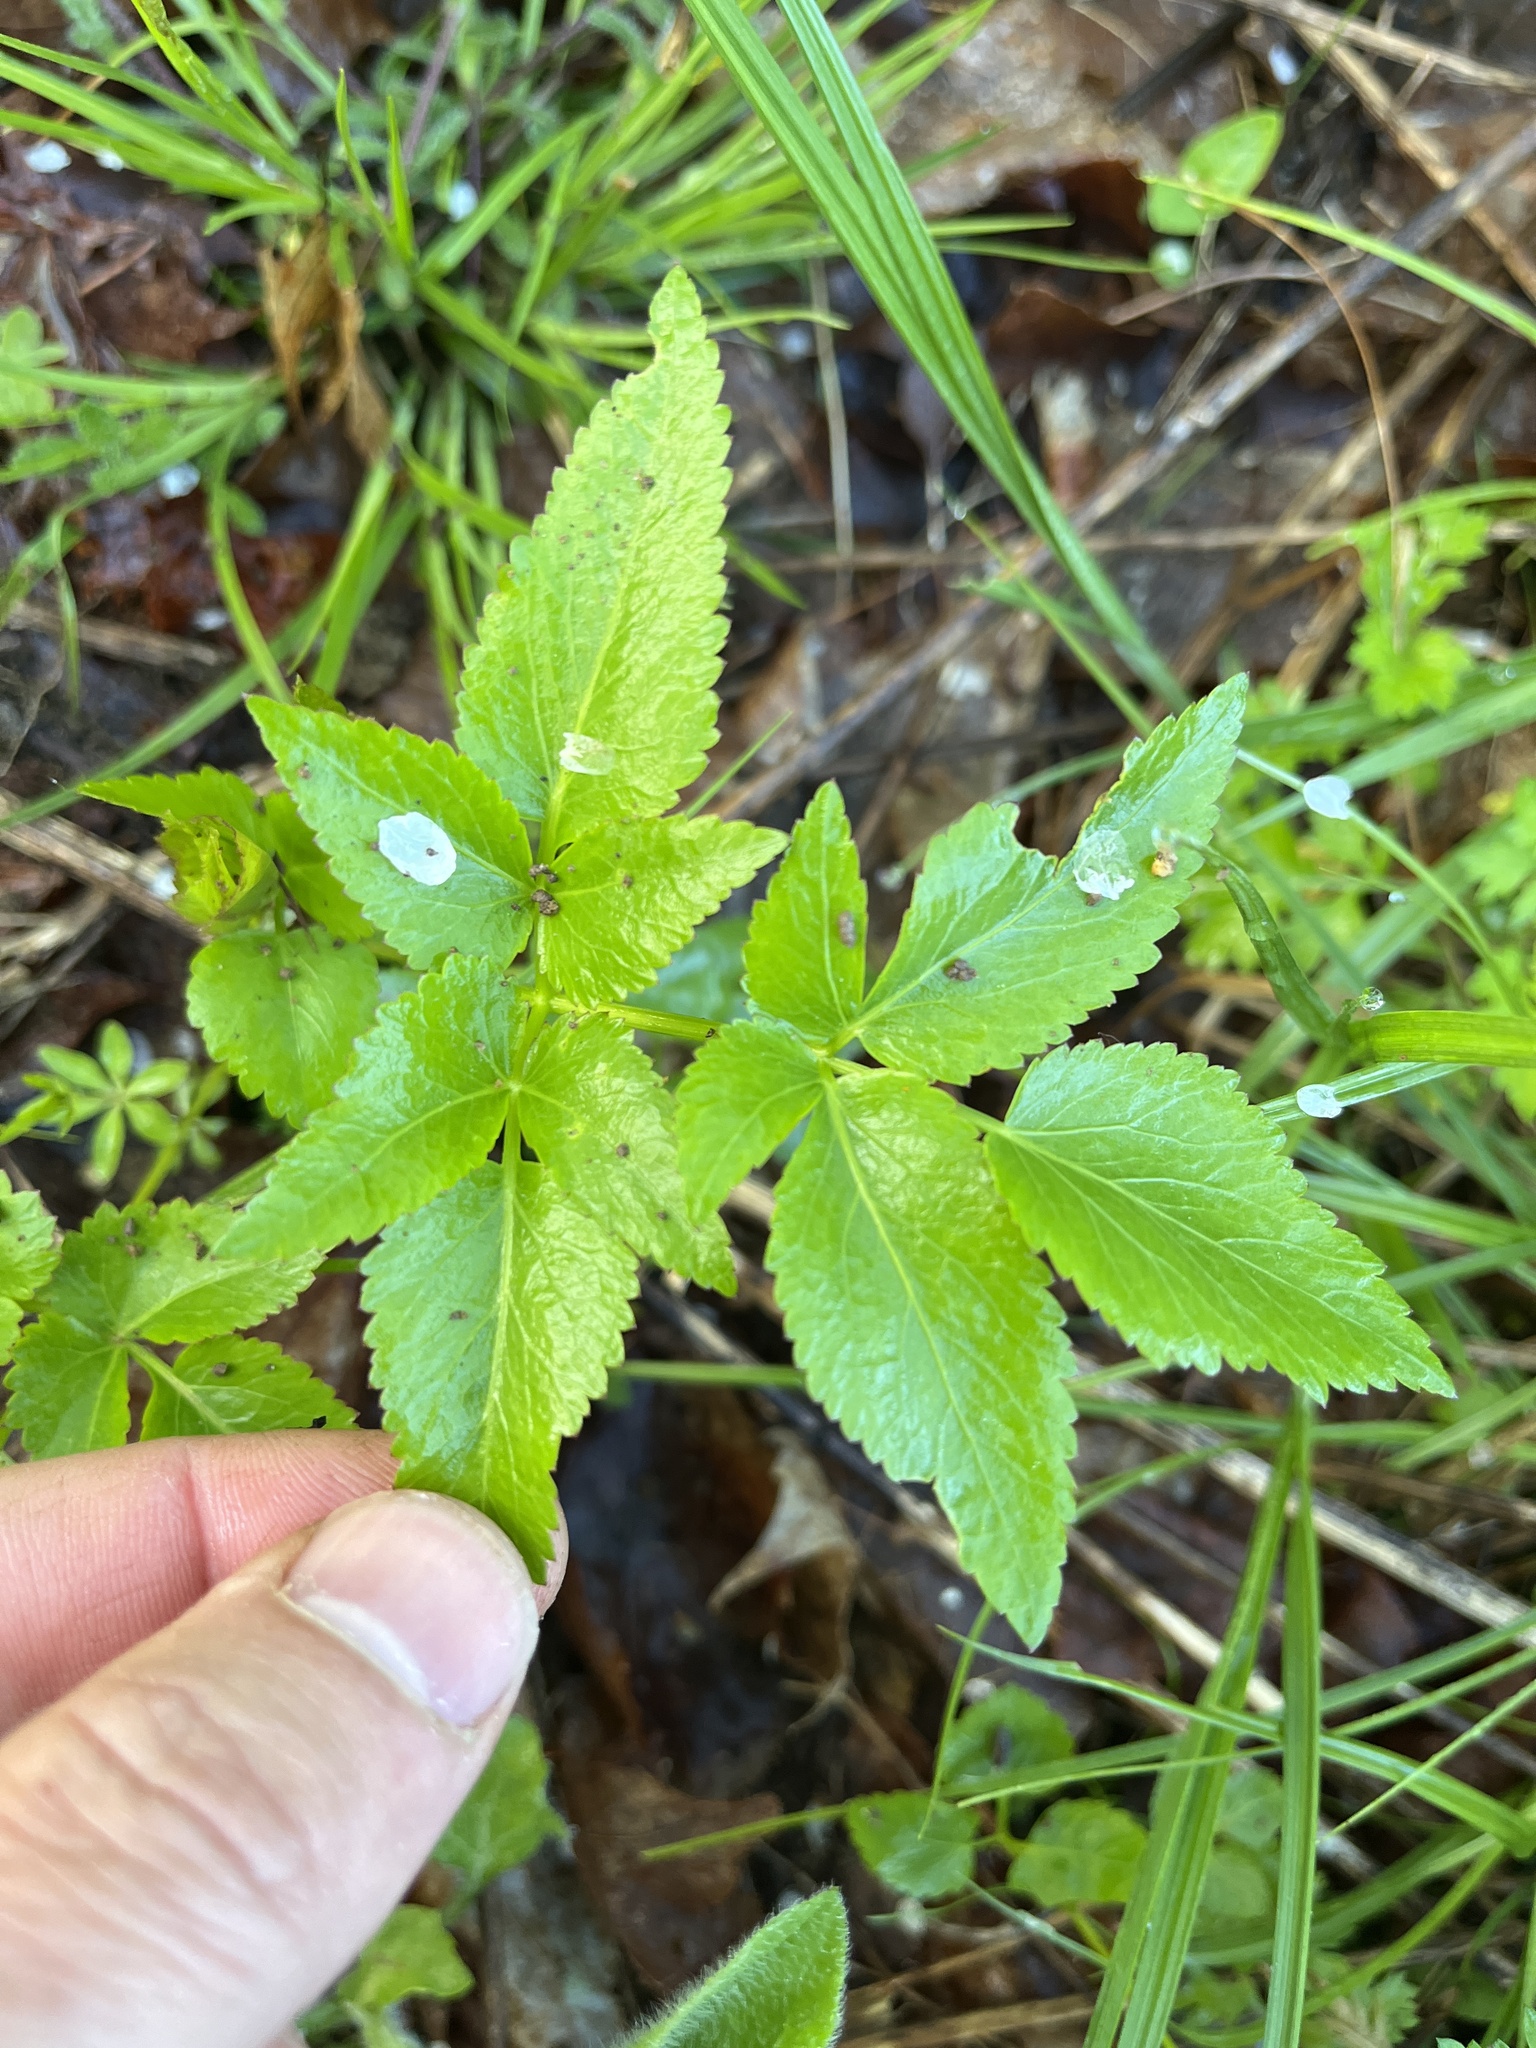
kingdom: Plantae
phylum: Tracheophyta
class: Magnoliopsida
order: Apiales
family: Apiaceae
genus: Zizia
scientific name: Zizia aurea
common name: Golden alexanders
